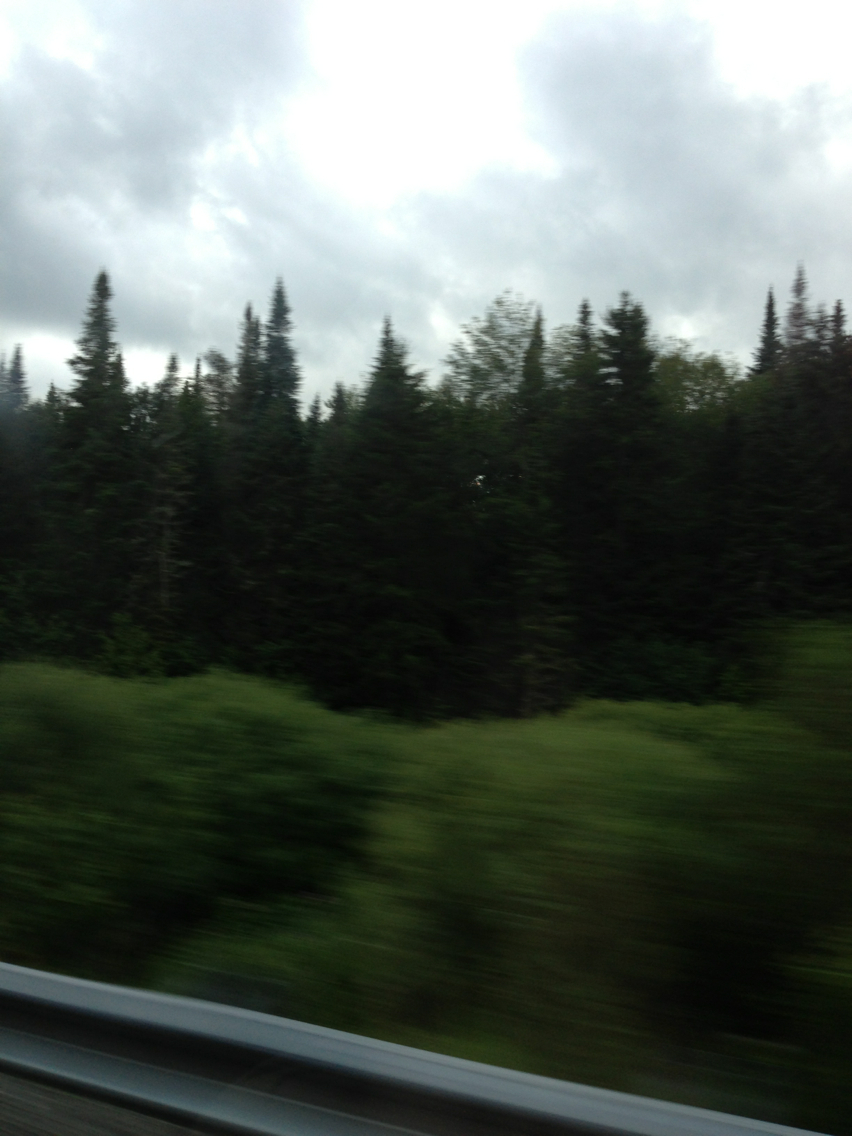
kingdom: Plantae
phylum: Tracheophyta
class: Pinopsida
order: Pinales
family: Pinaceae
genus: Abies
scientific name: Abies balsamea
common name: Balsam fir
